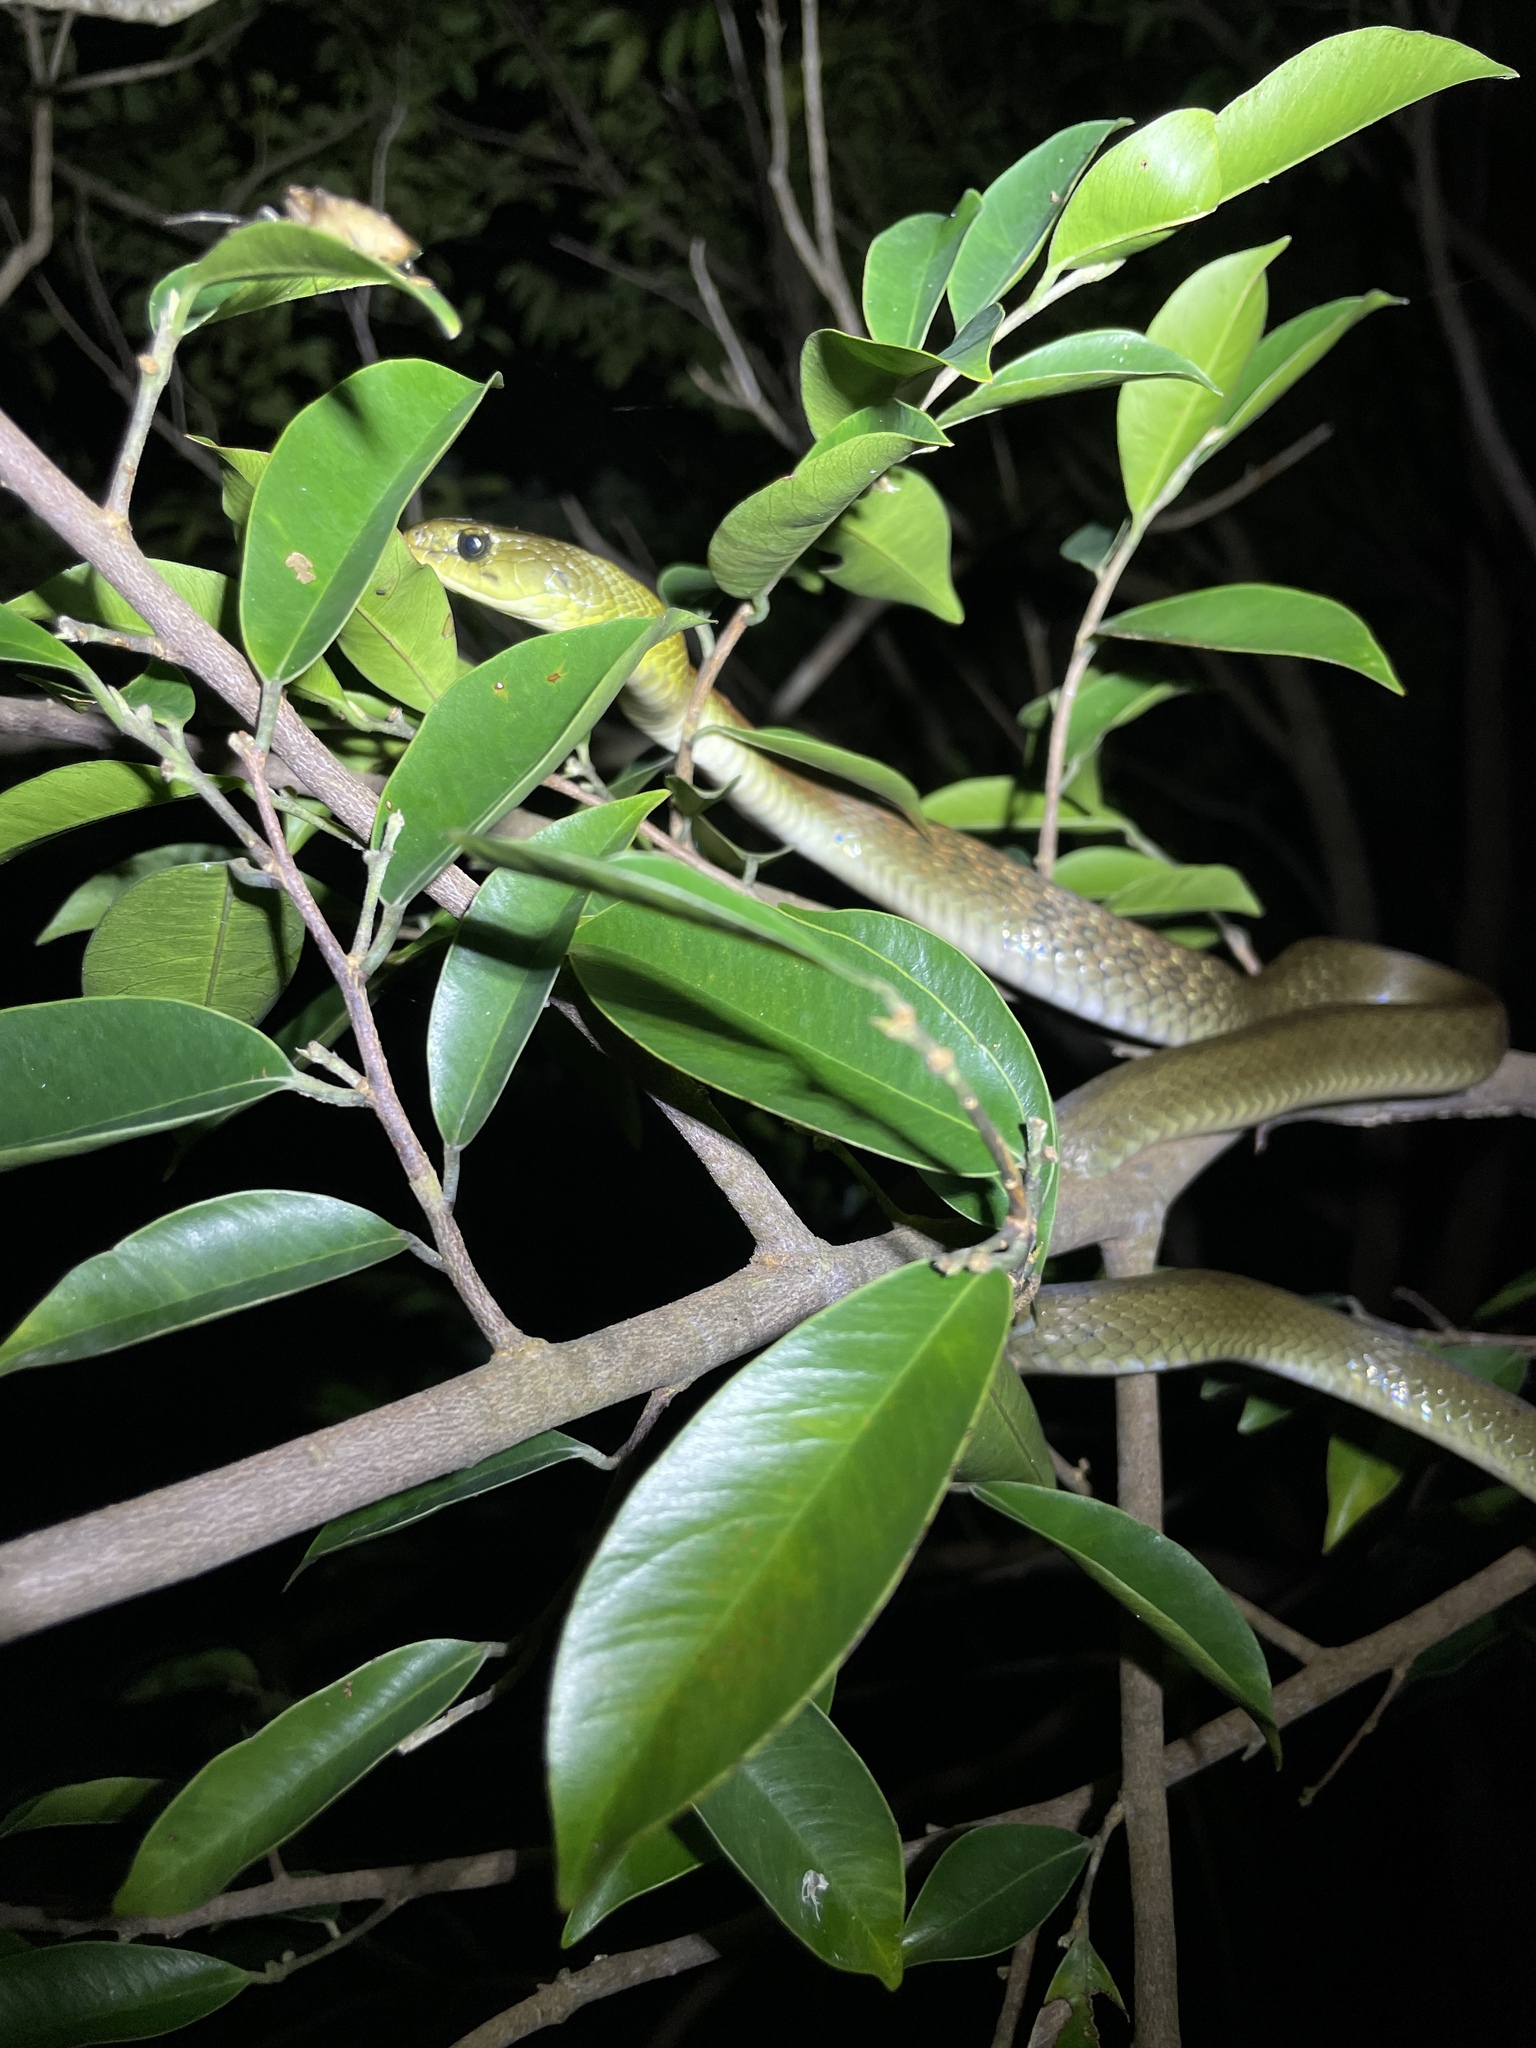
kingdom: Animalia
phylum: Chordata
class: Squamata
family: Colubridae
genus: Rhabdophis
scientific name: Rhabdophis helleri
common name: Heller’s red-necked keelback
